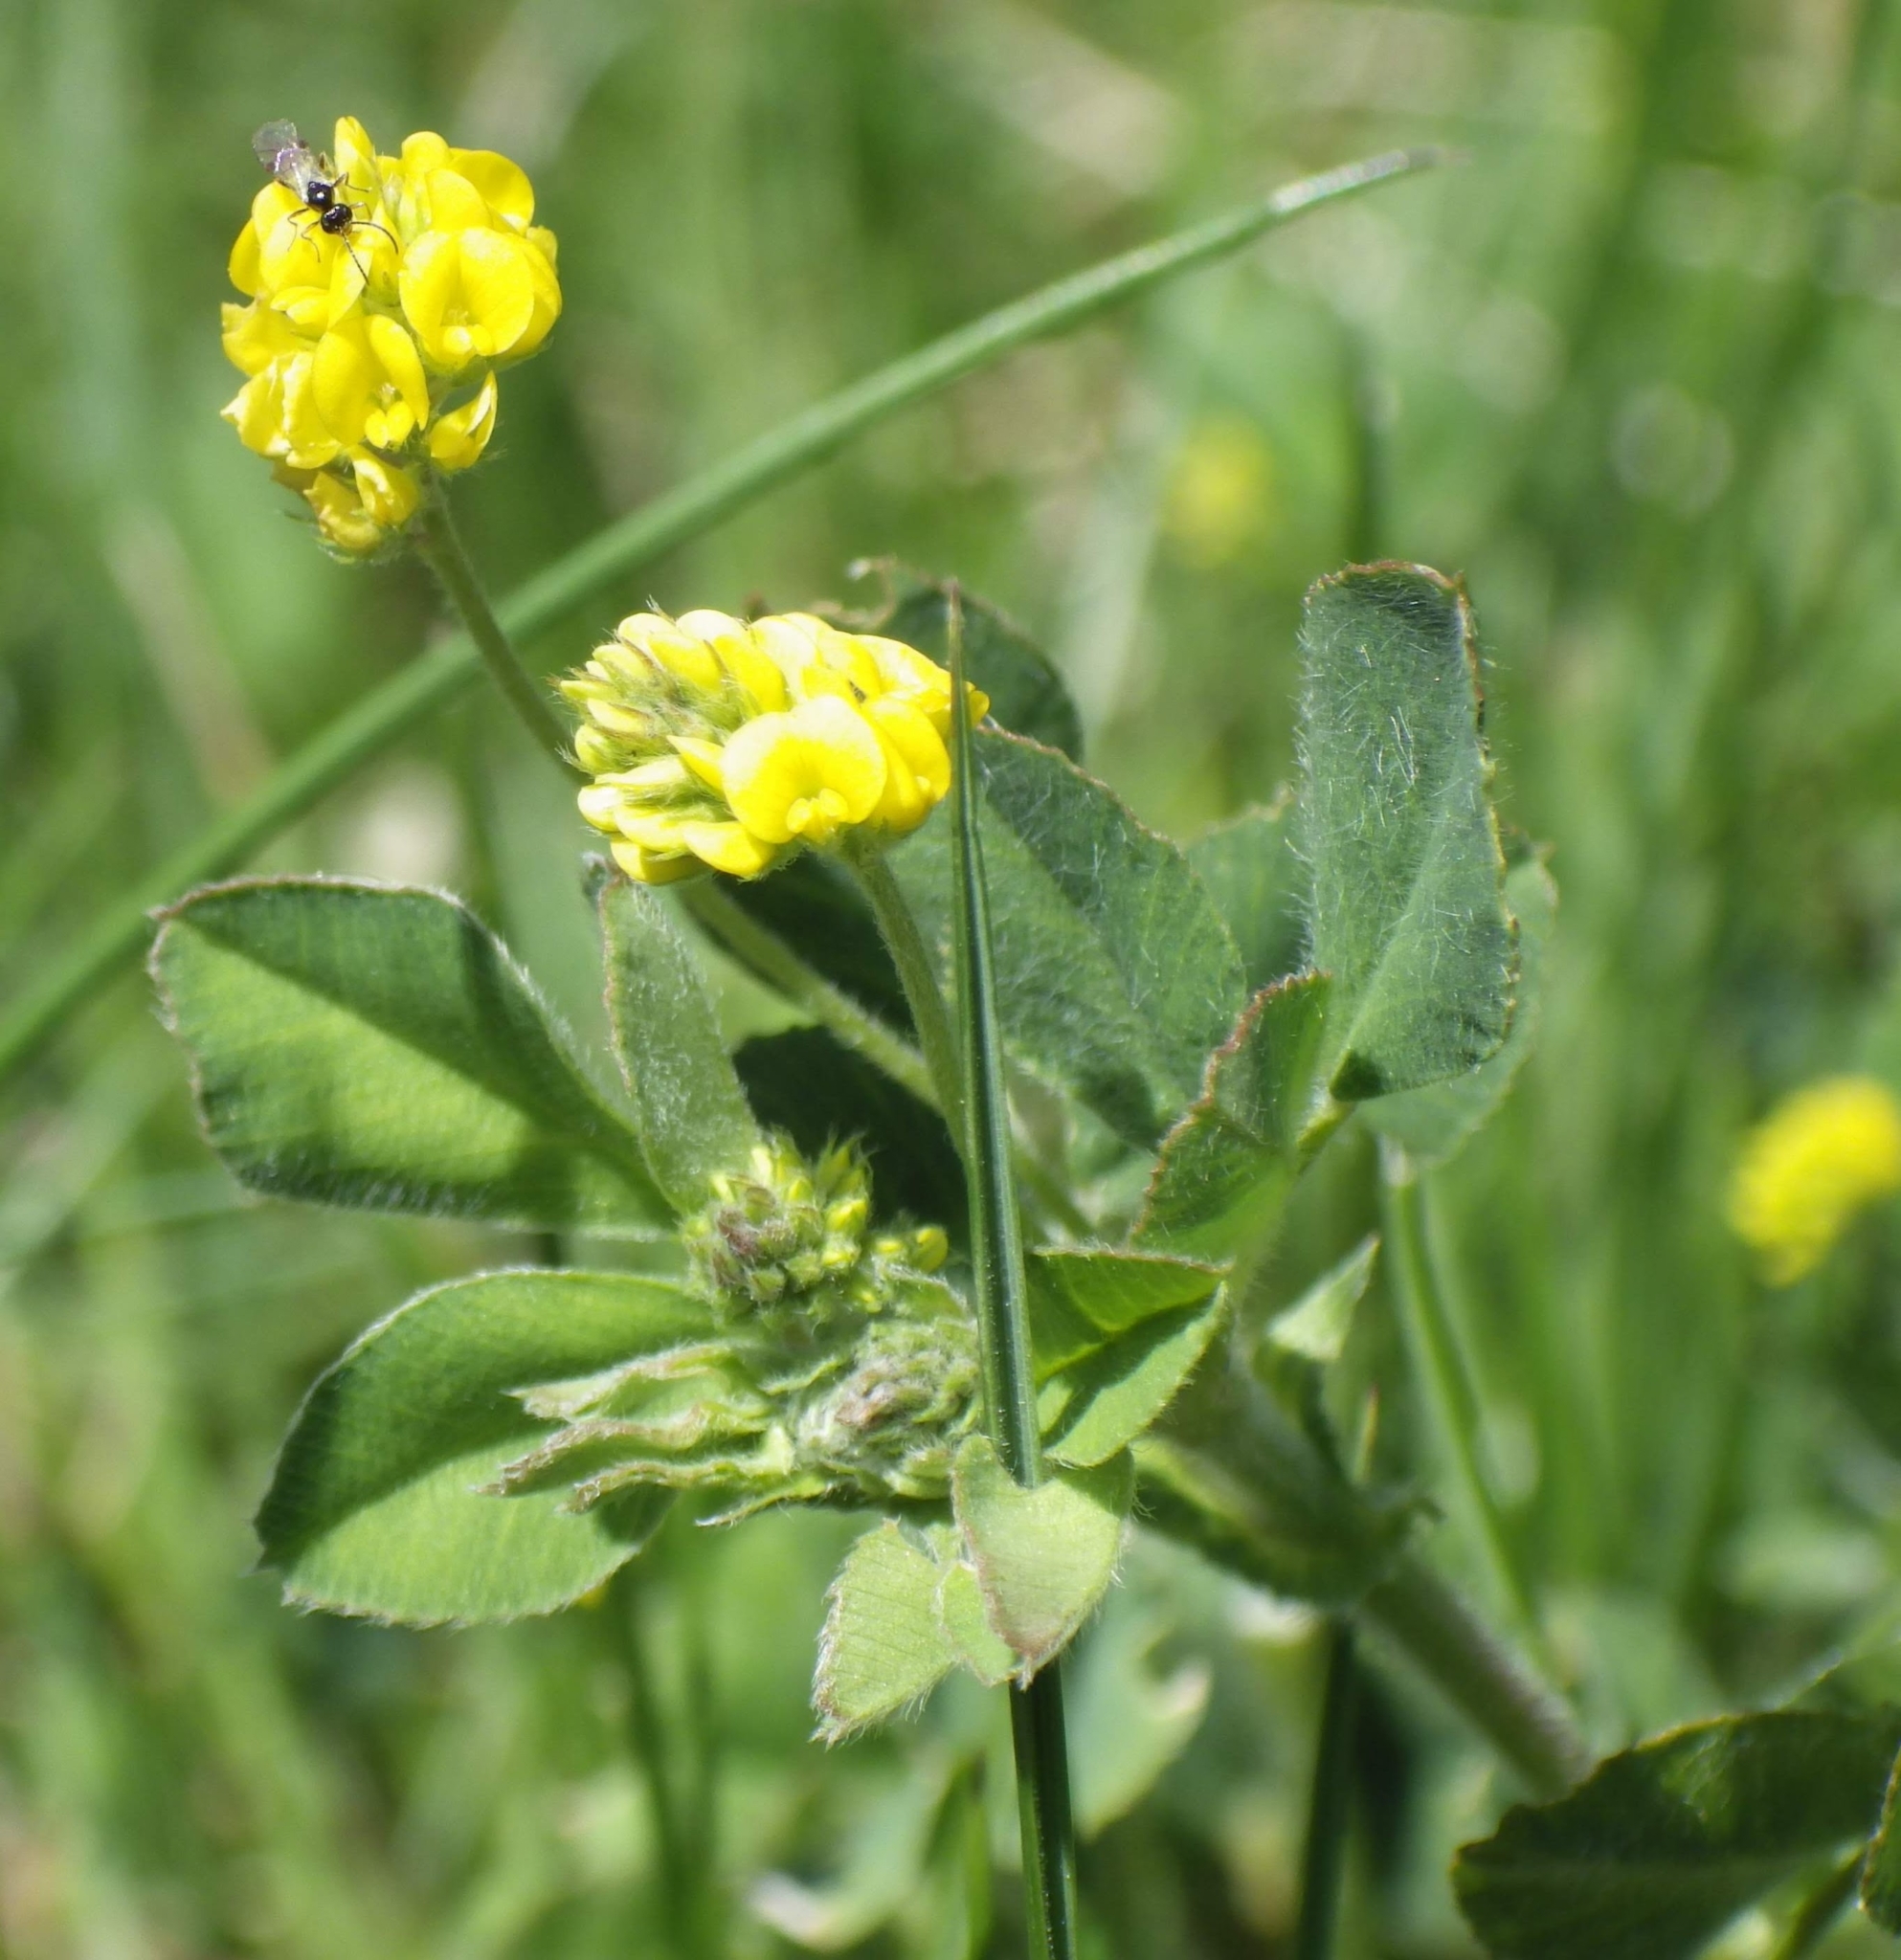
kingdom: Plantae
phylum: Tracheophyta
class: Magnoliopsida
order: Fabales
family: Fabaceae
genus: Medicago
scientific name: Medicago lupulina
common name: Black medick
